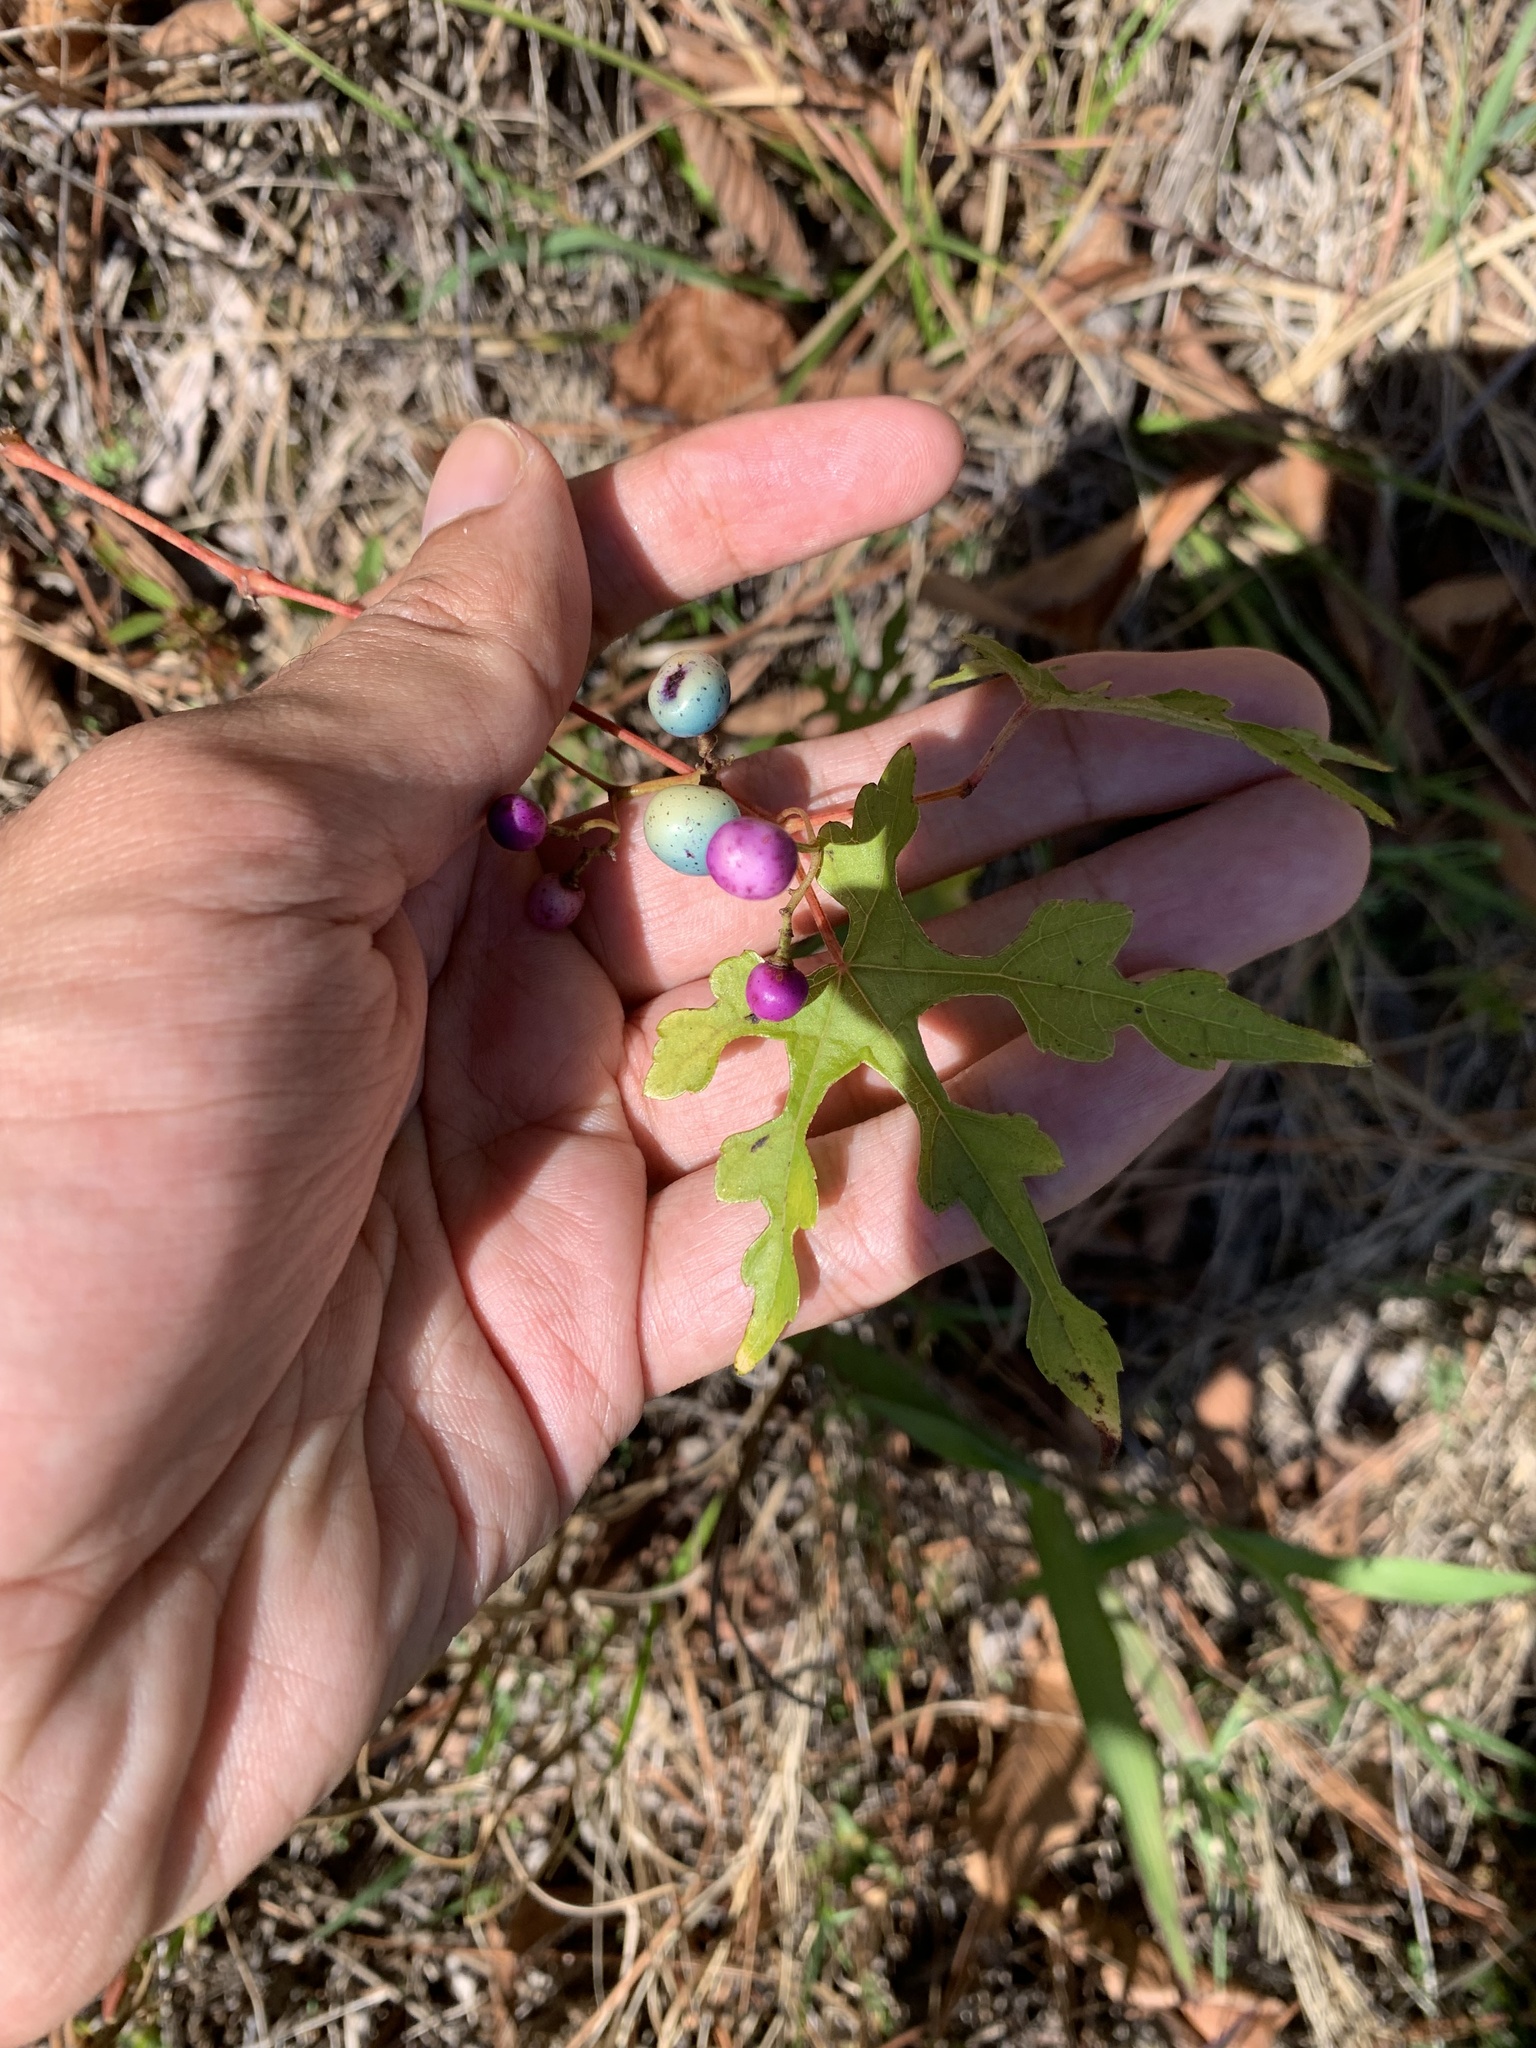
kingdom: Plantae
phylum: Tracheophyta
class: Magnoliopsida
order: Vitales
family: Vitaceae
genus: Ampelopsis
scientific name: Ampelopsis glandulosa
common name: Amur peppervine
